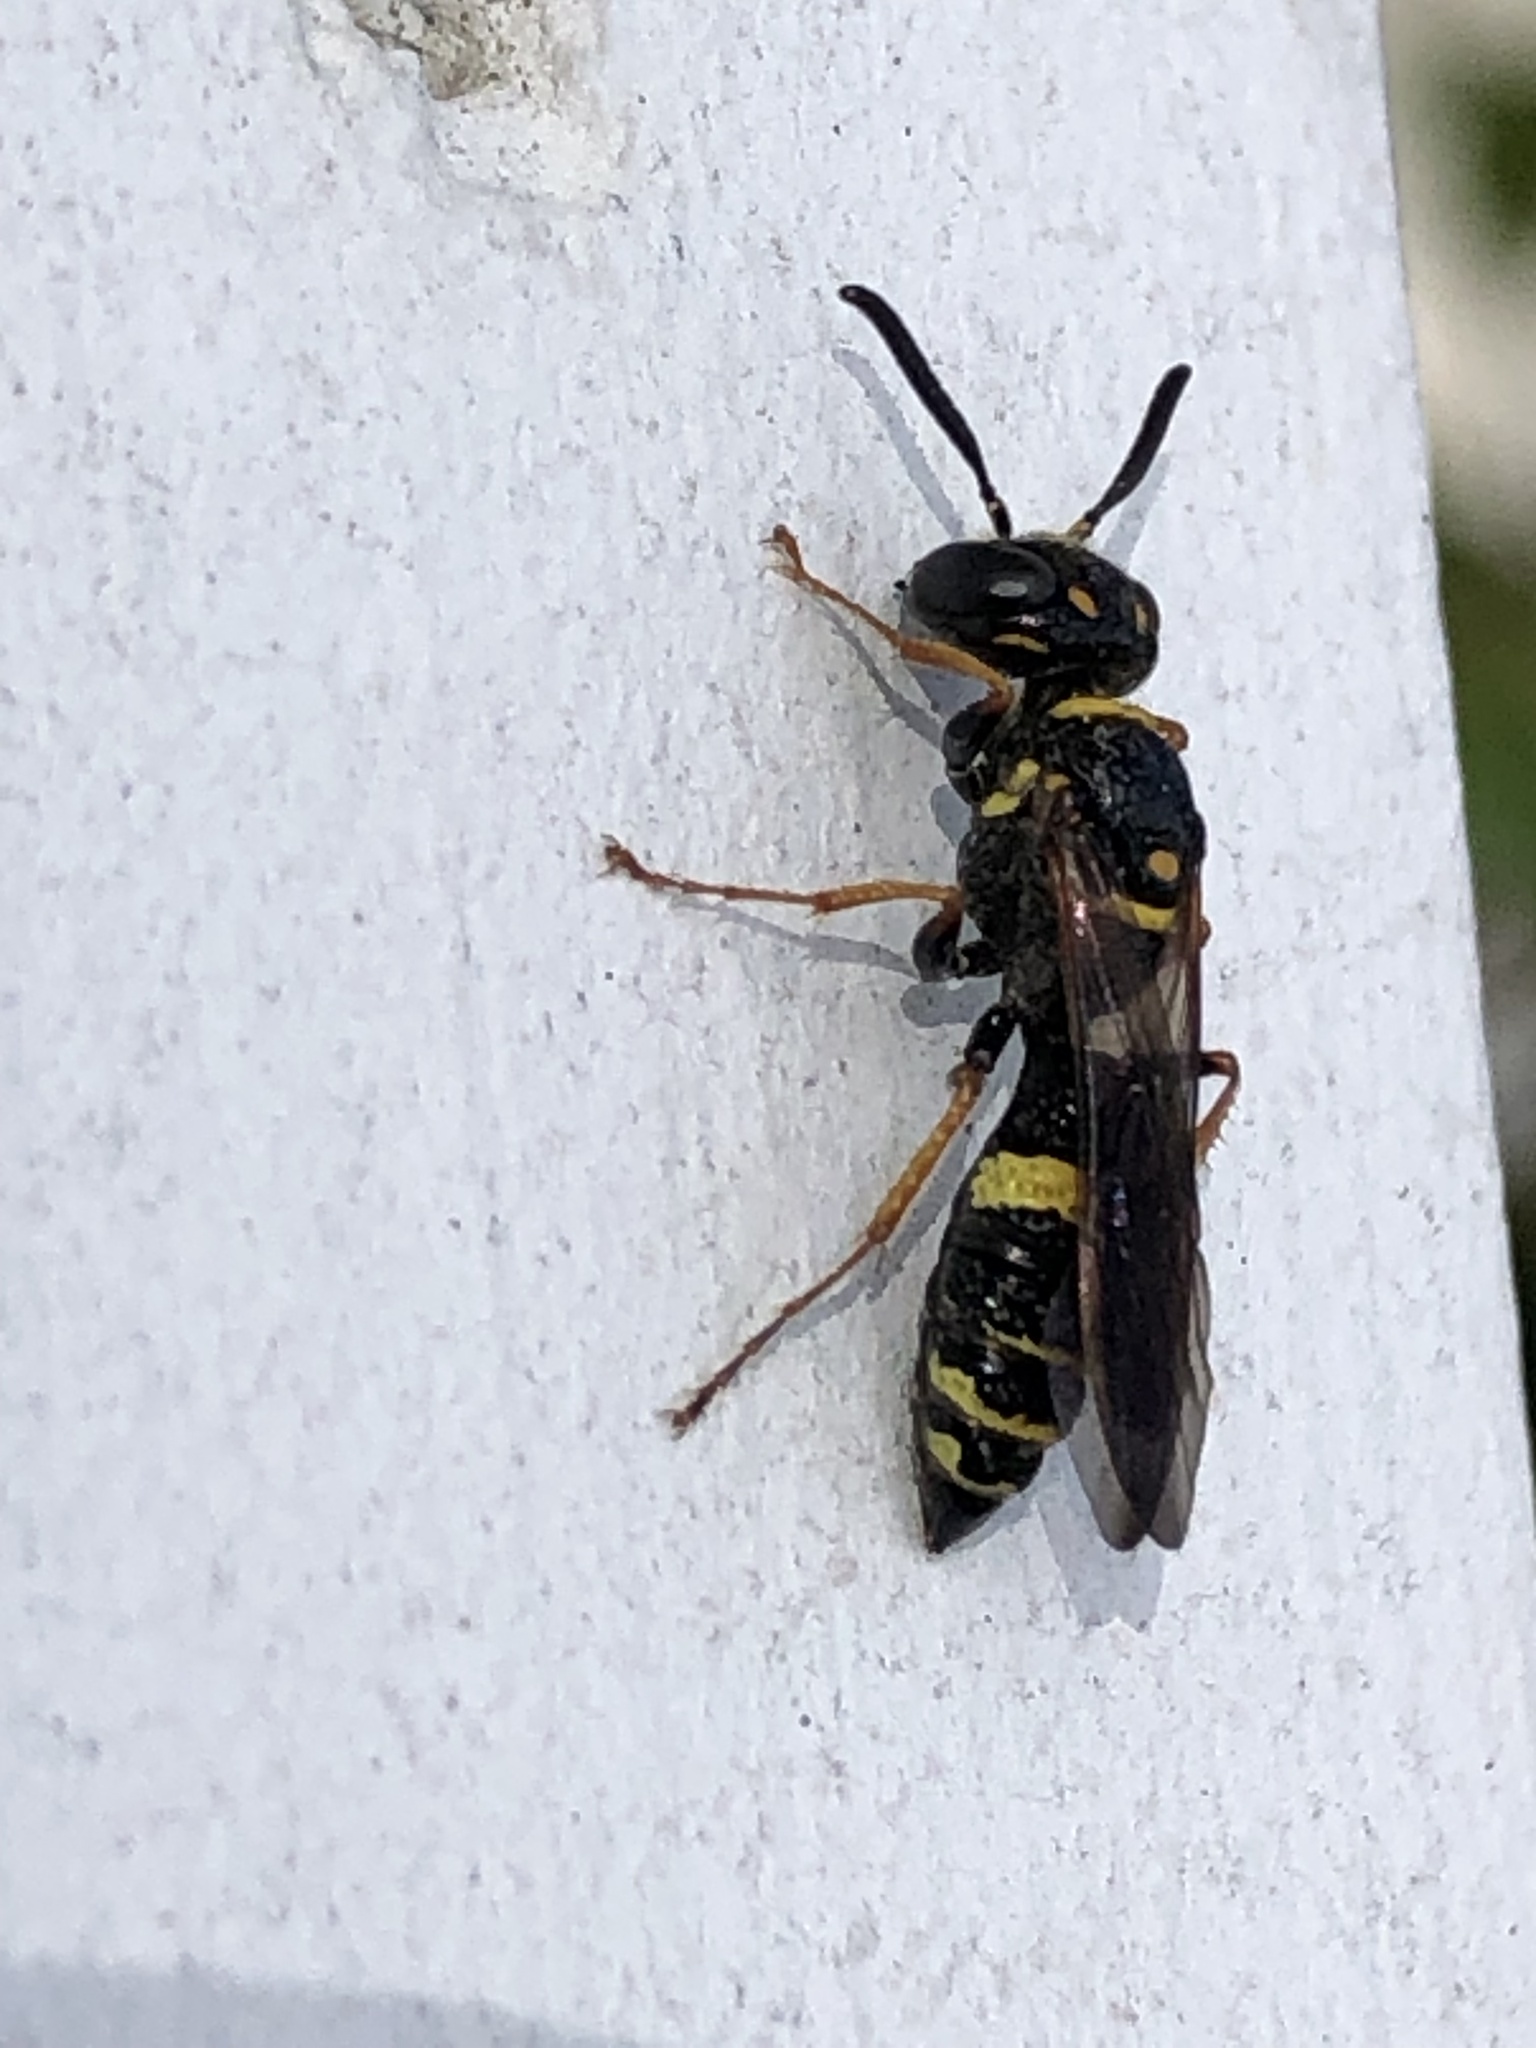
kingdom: Animalia
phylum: Arthropoda
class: Insecta
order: Hymenoptera
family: Crabronidae
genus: Philanthus
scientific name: Philanthus gibbosus
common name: Humped beewolf
